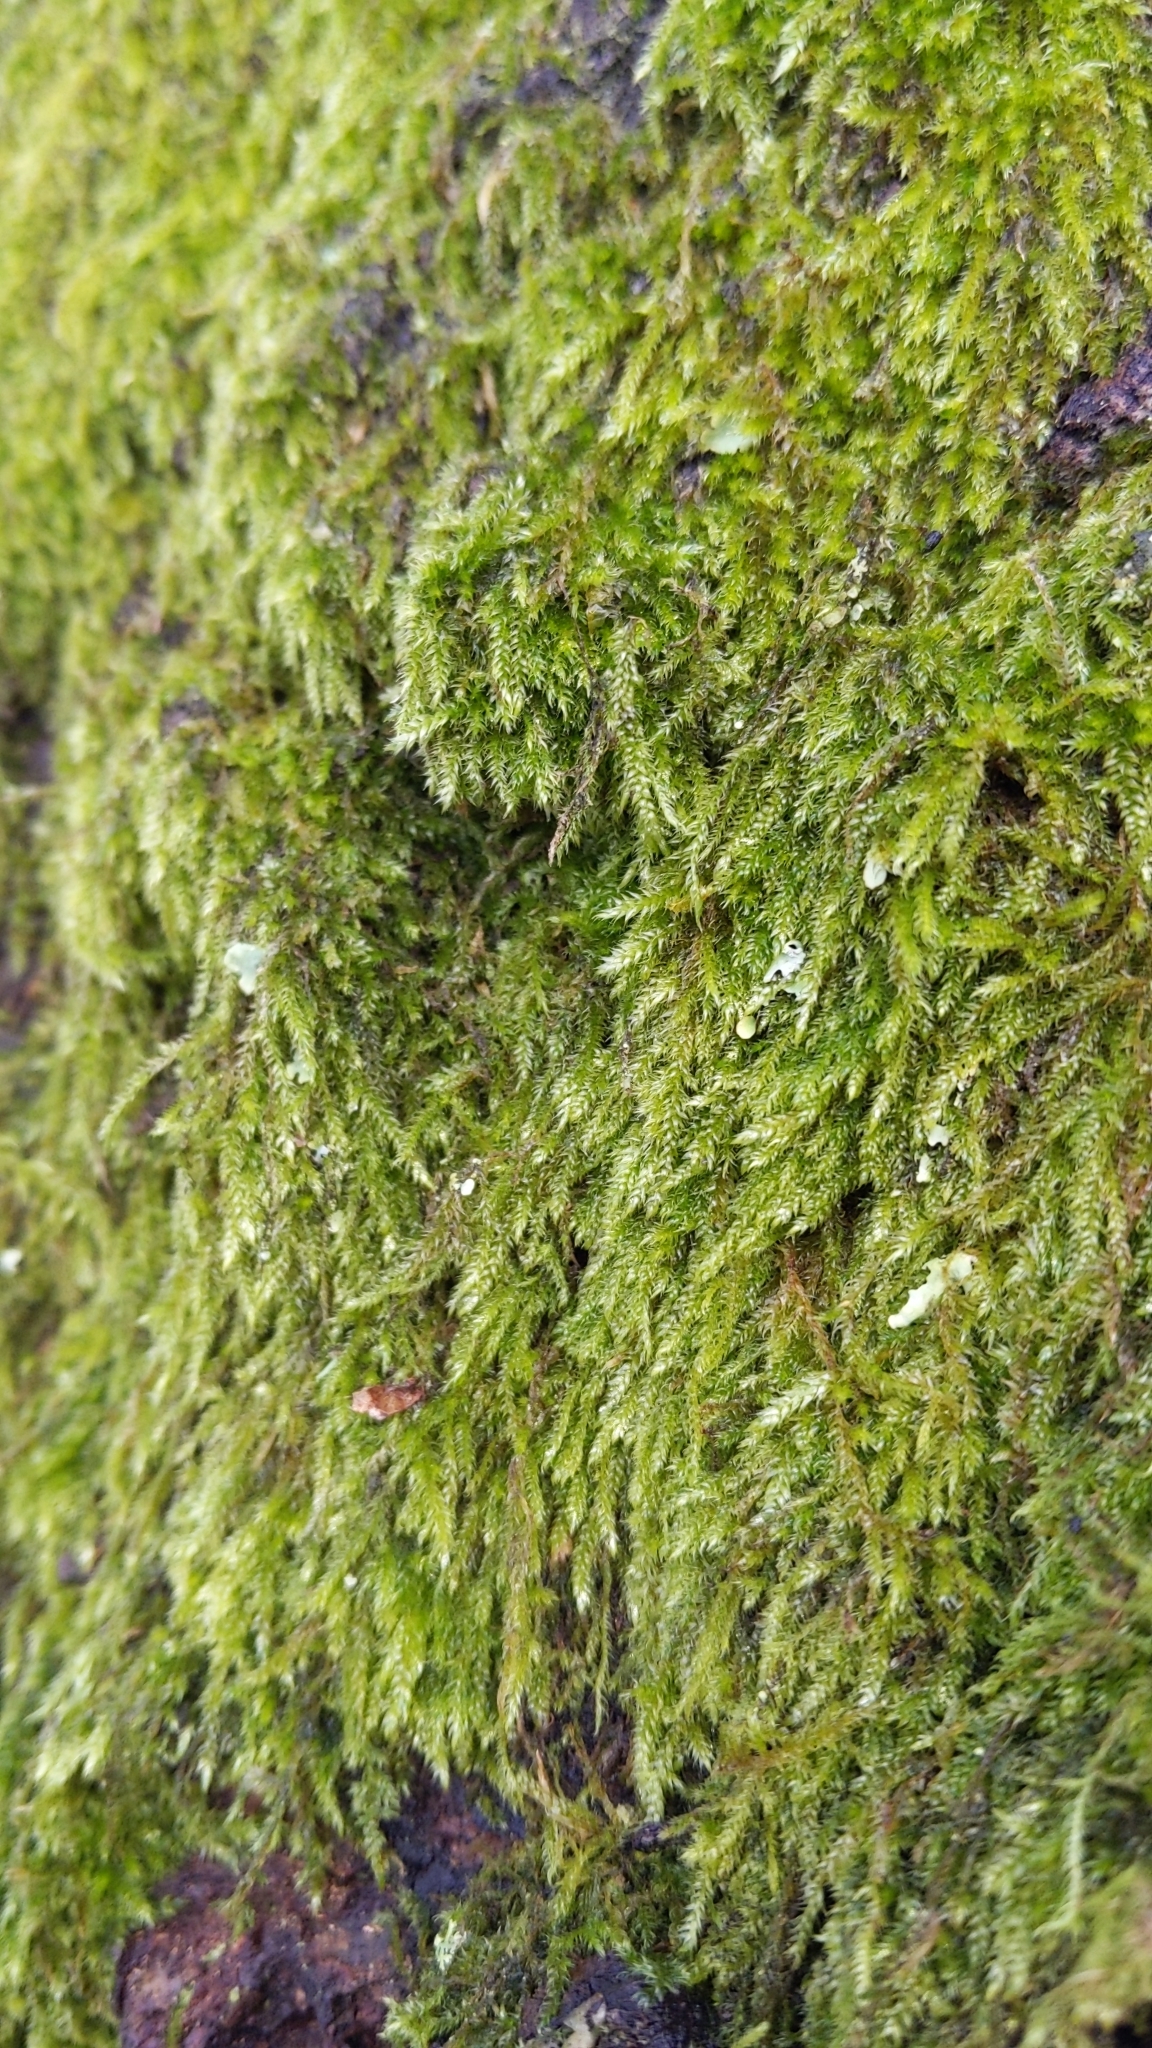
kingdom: Plantae
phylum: Bryophyta
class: Bryopsida
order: Hypnales
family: Hypnaceae
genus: Hypnum
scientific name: Hypnum cupressiforme
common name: Cypress-leaved plait-moss
